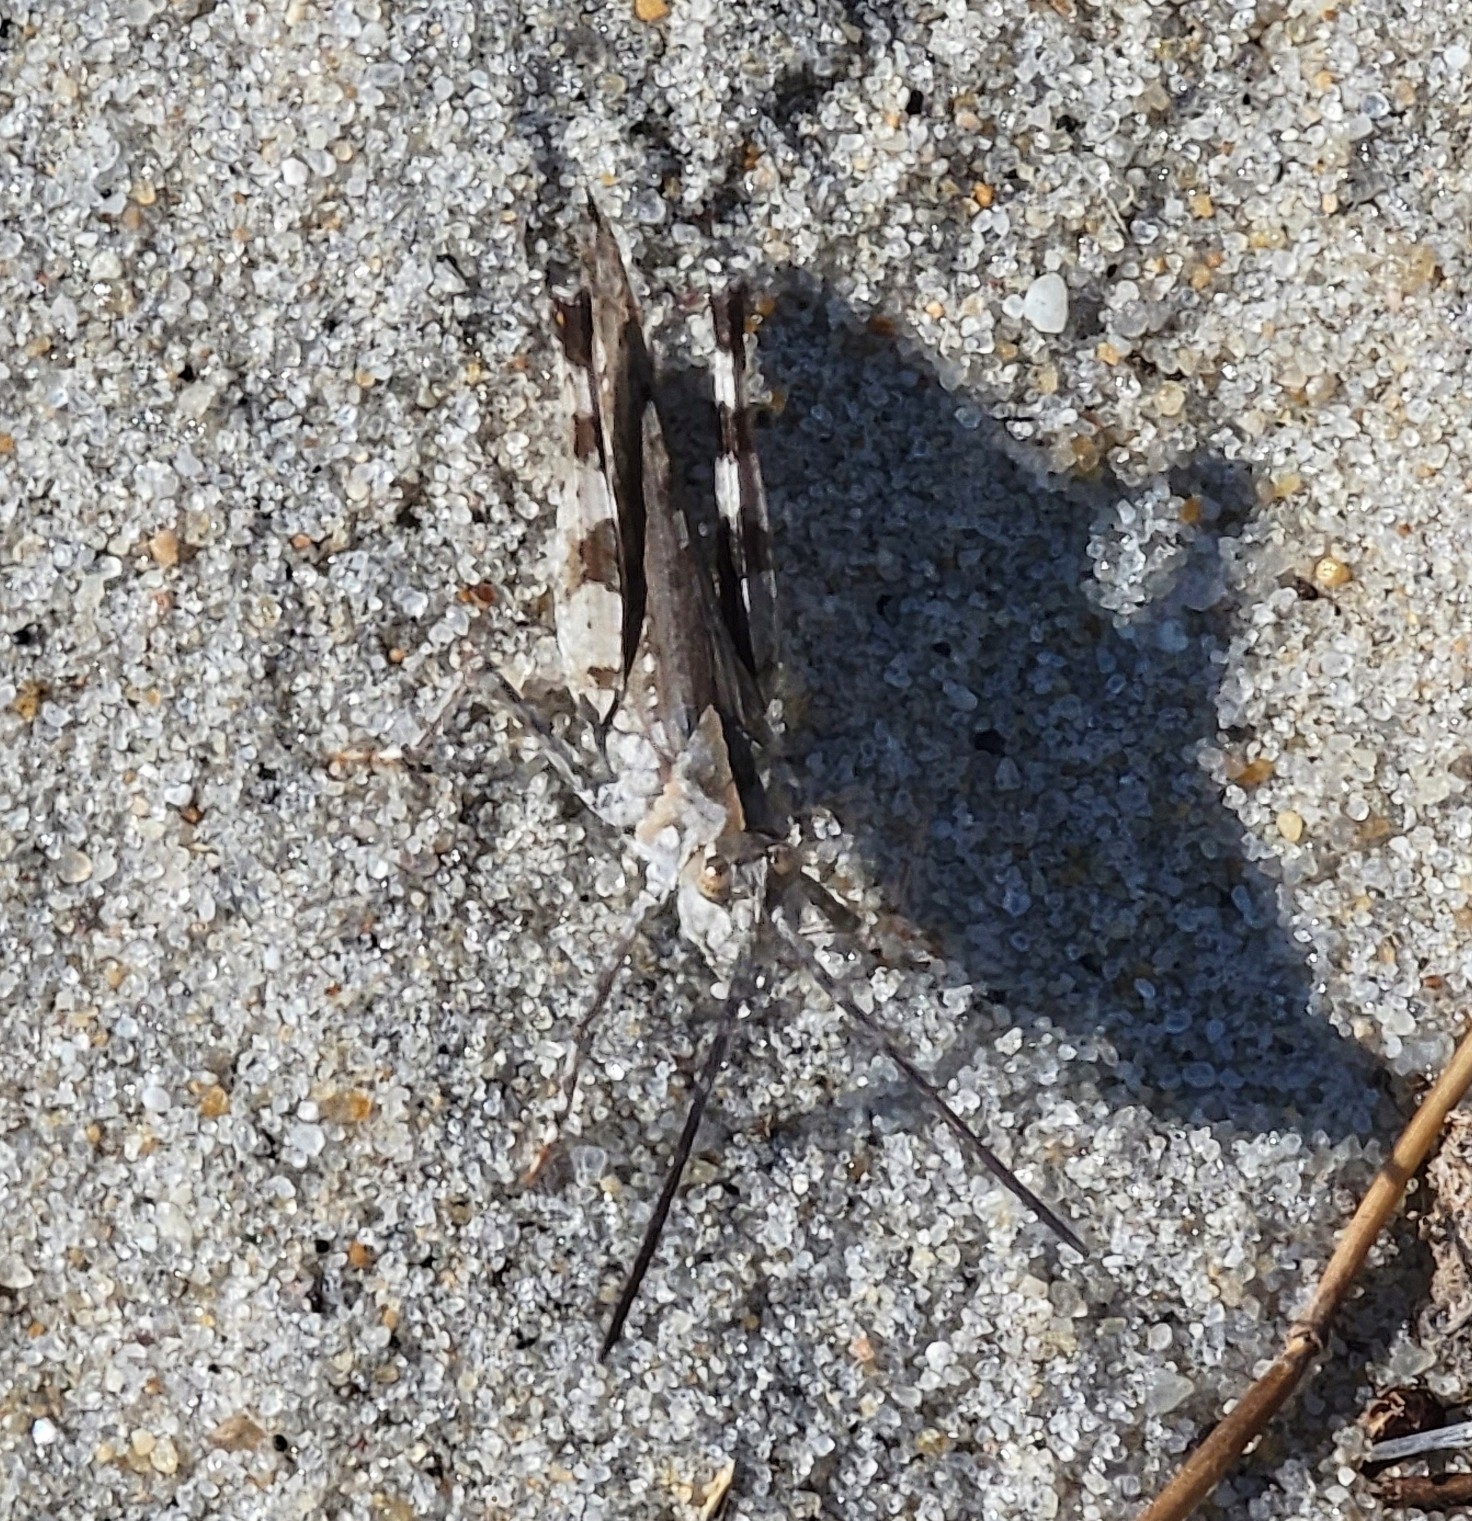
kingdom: Animalia
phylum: Arthropoda
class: Insecta
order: Orthoptera
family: Acrididae
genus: Psinidia
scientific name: Psinidia fenestralis
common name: Long-horned locust
